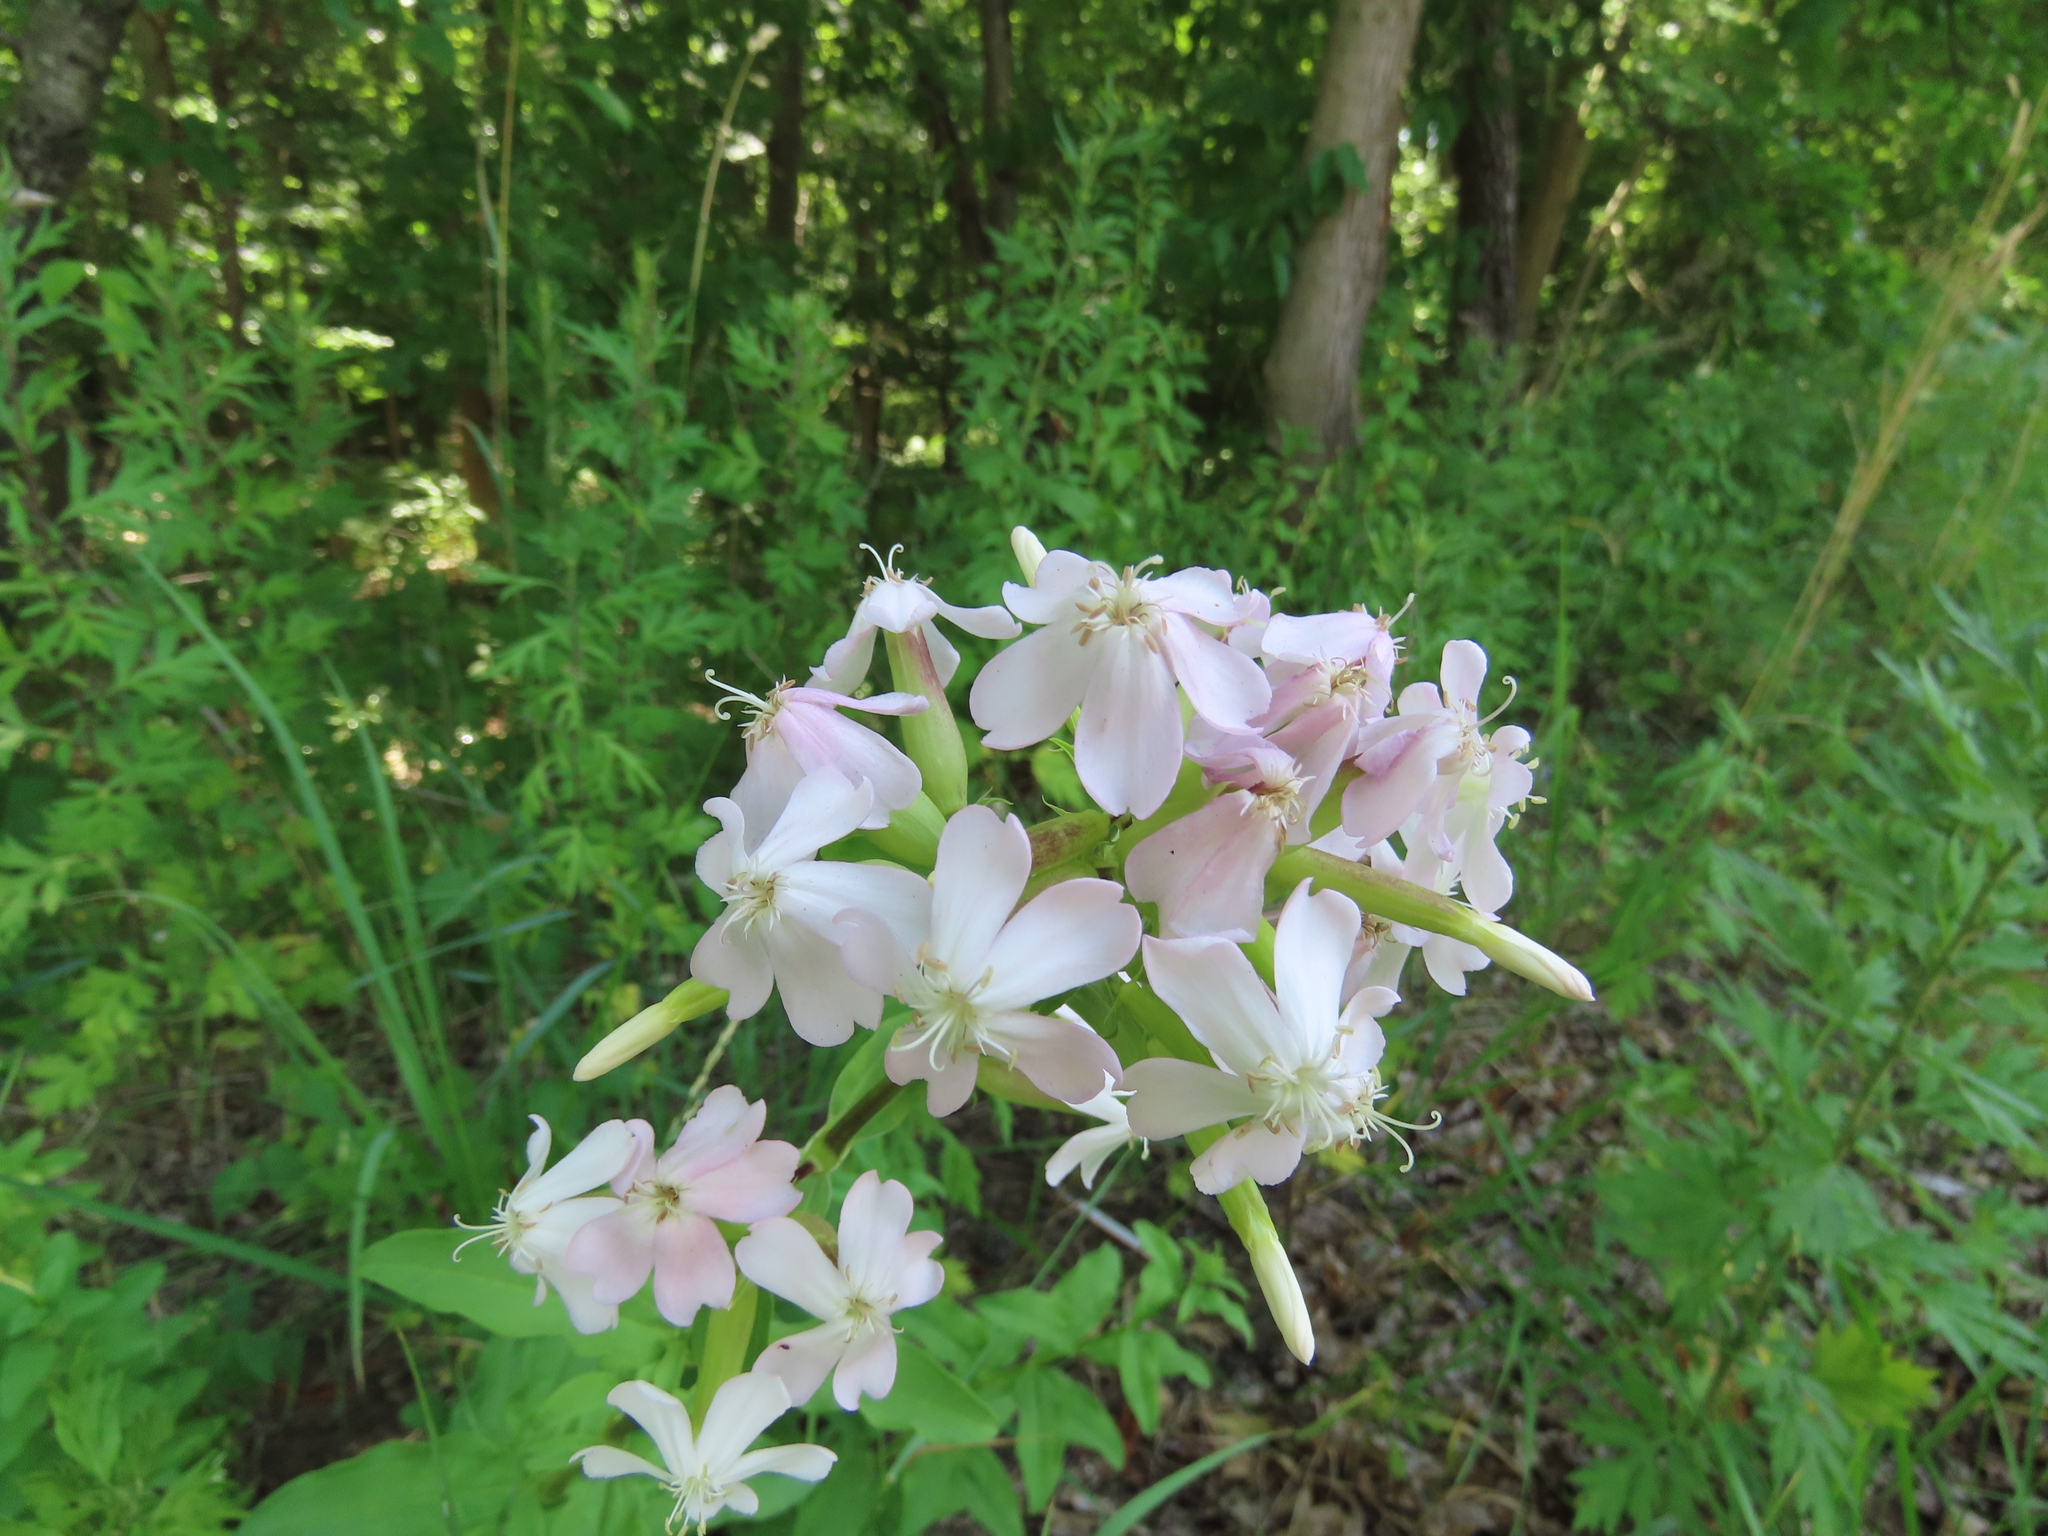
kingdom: Plantae
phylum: Tracheophyta
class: Magnoliopsida
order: Caryophyllales
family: Caryophyllaceae
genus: Saponaria
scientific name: Saponaria officinalis
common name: Soapwort
